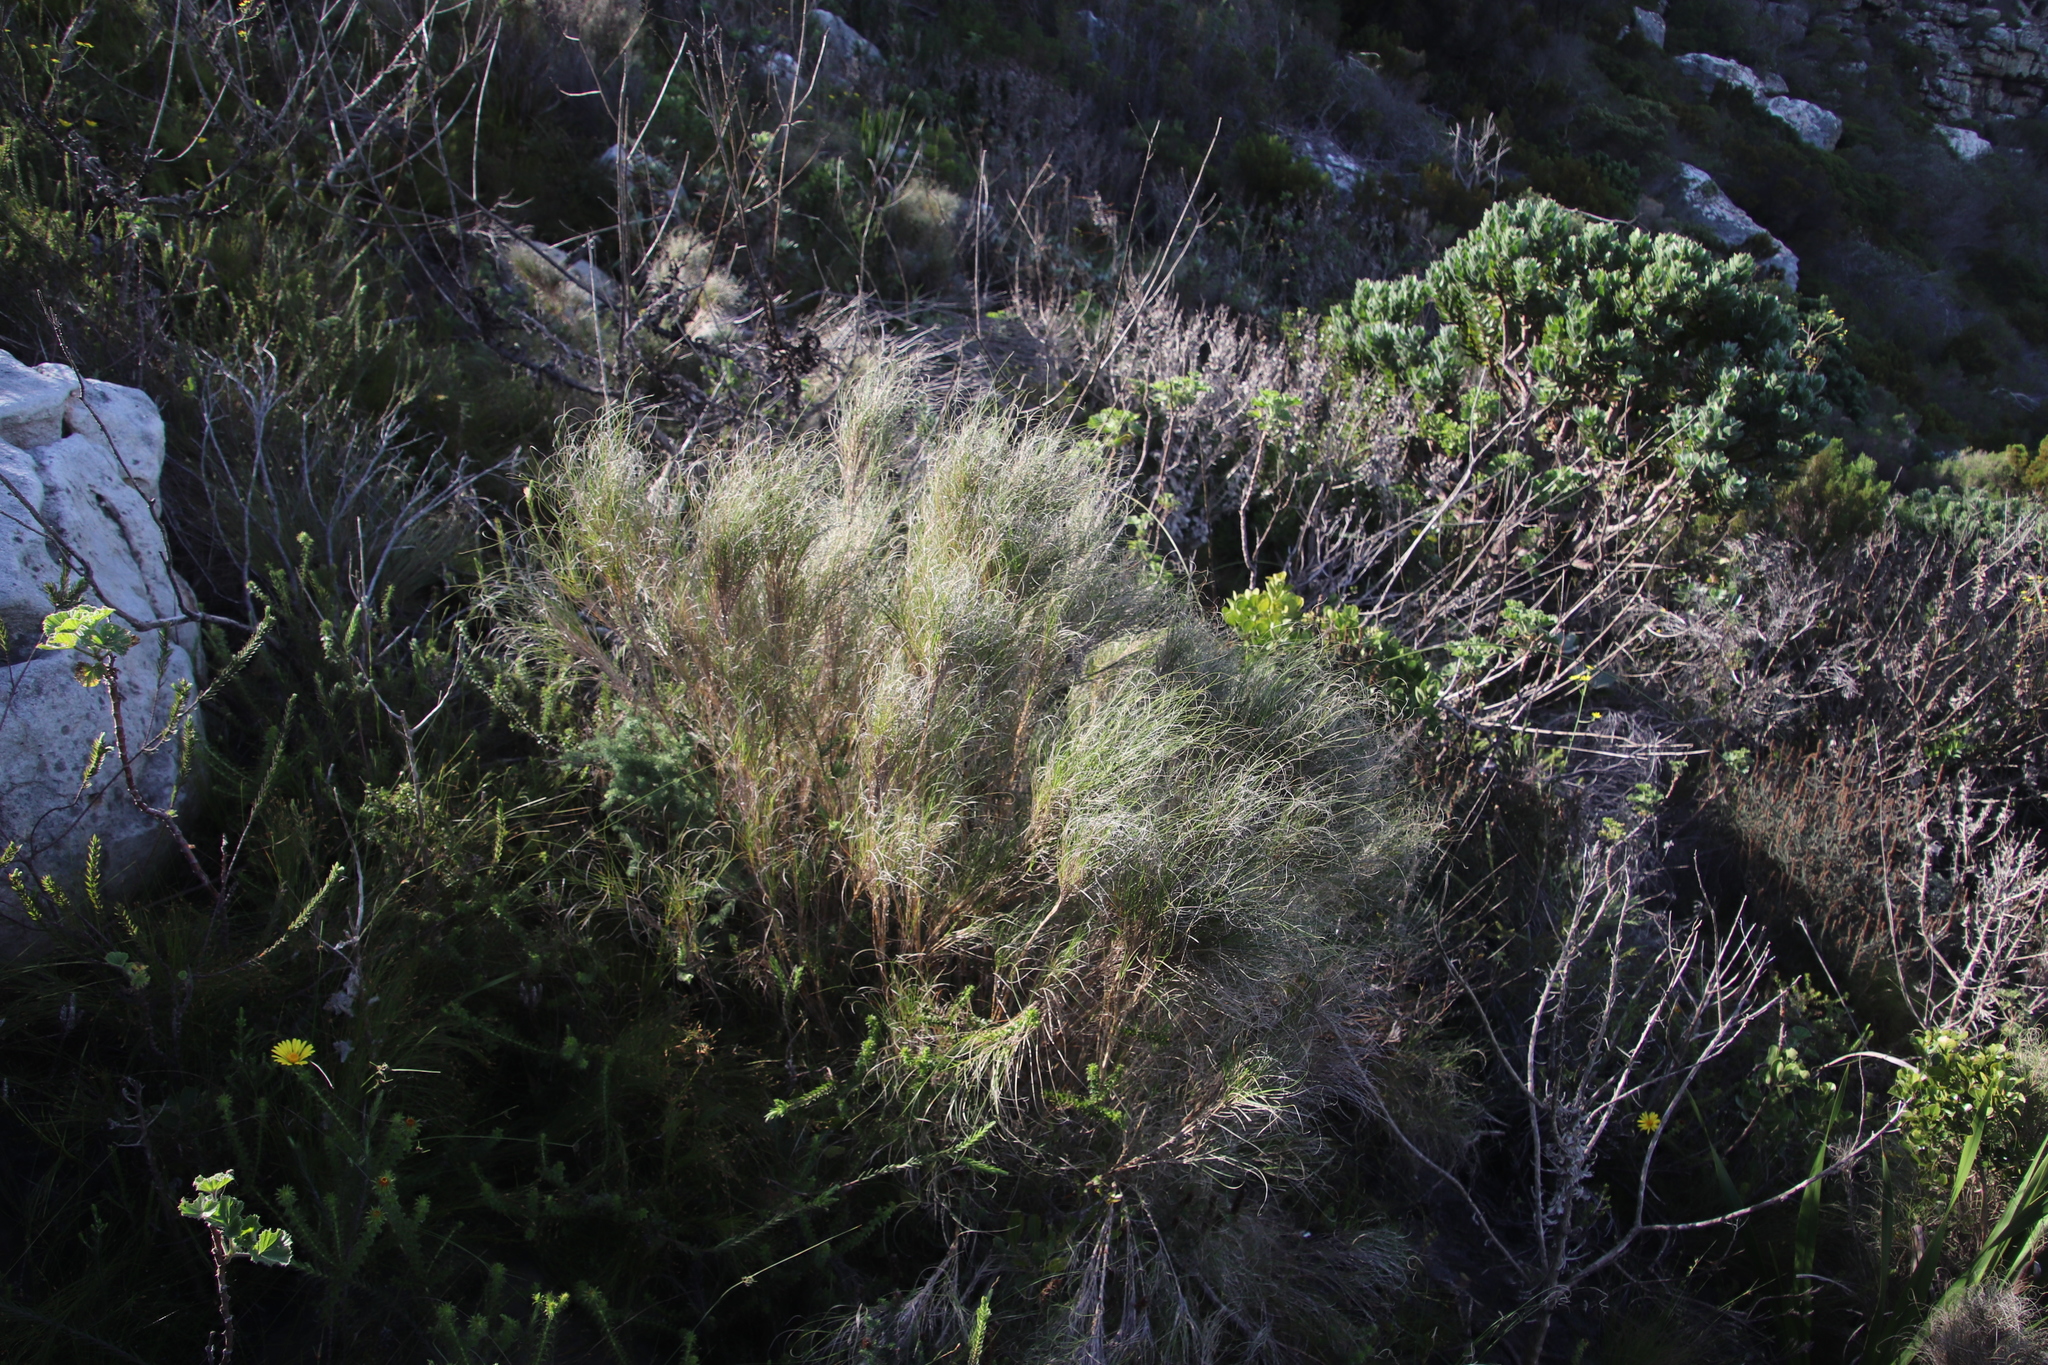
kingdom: Plantae
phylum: Tracheophyta
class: Liliopsida
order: Poales
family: Poaceae
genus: Pseudopentameris
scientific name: Pseudopentameris macrantha
